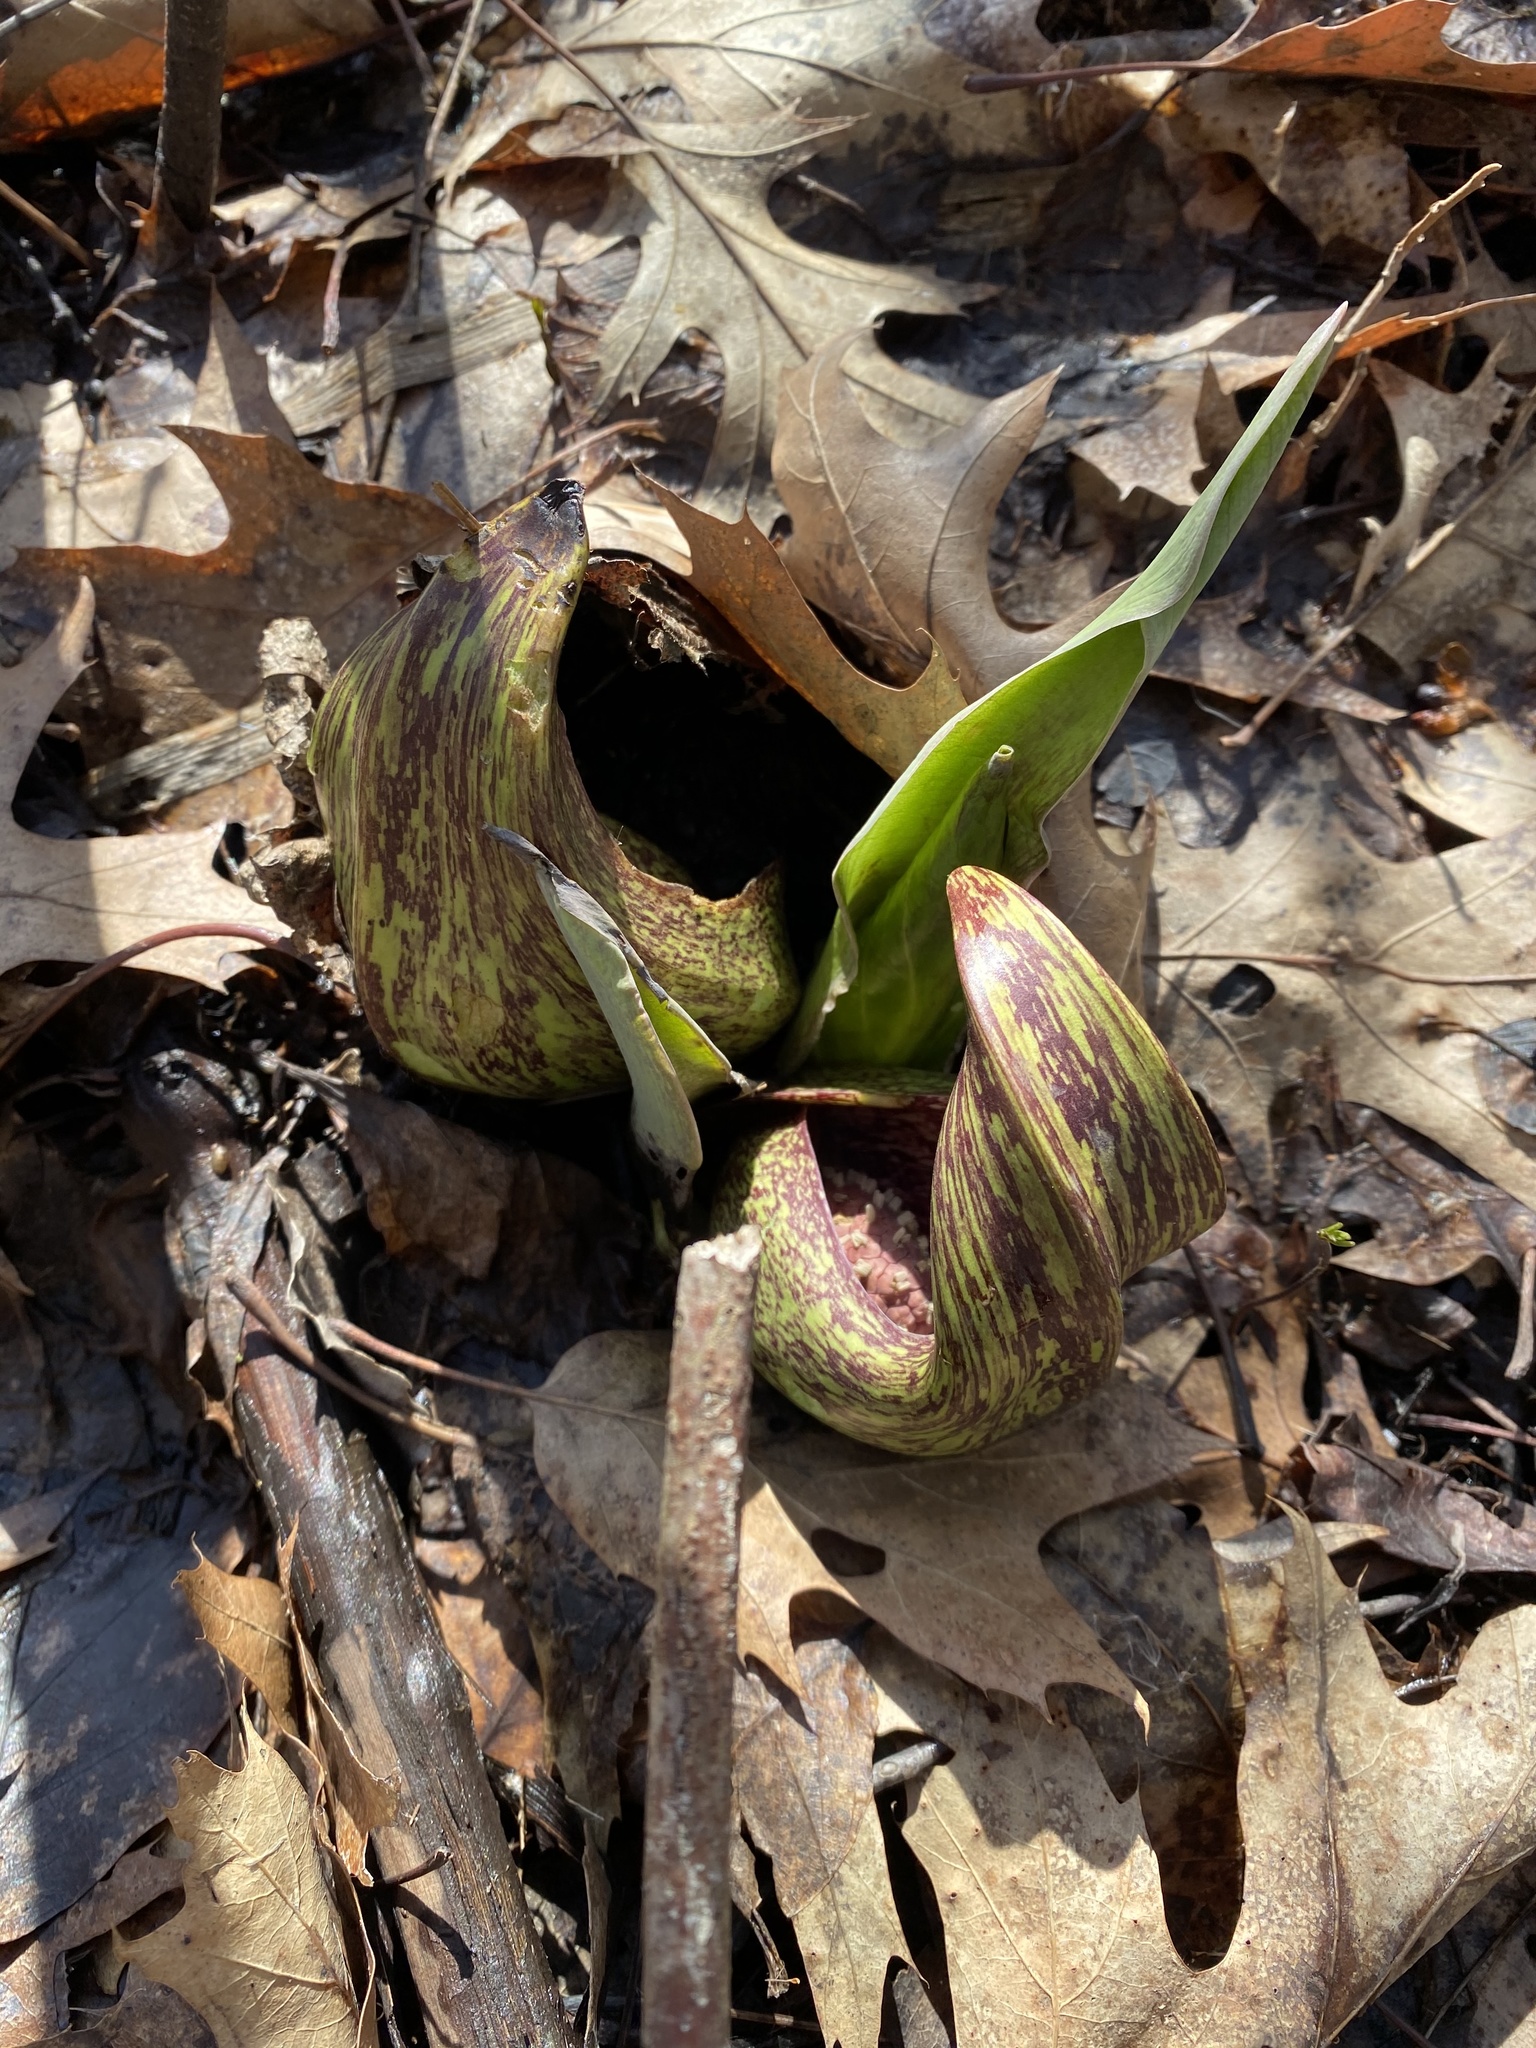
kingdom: Plantae
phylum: Tracheophyta
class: Liliopsida
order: Alismatales
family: Araceae
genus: Symplocarpus
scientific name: Symplocarpus foetidus
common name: Eastern skunk cabbage
